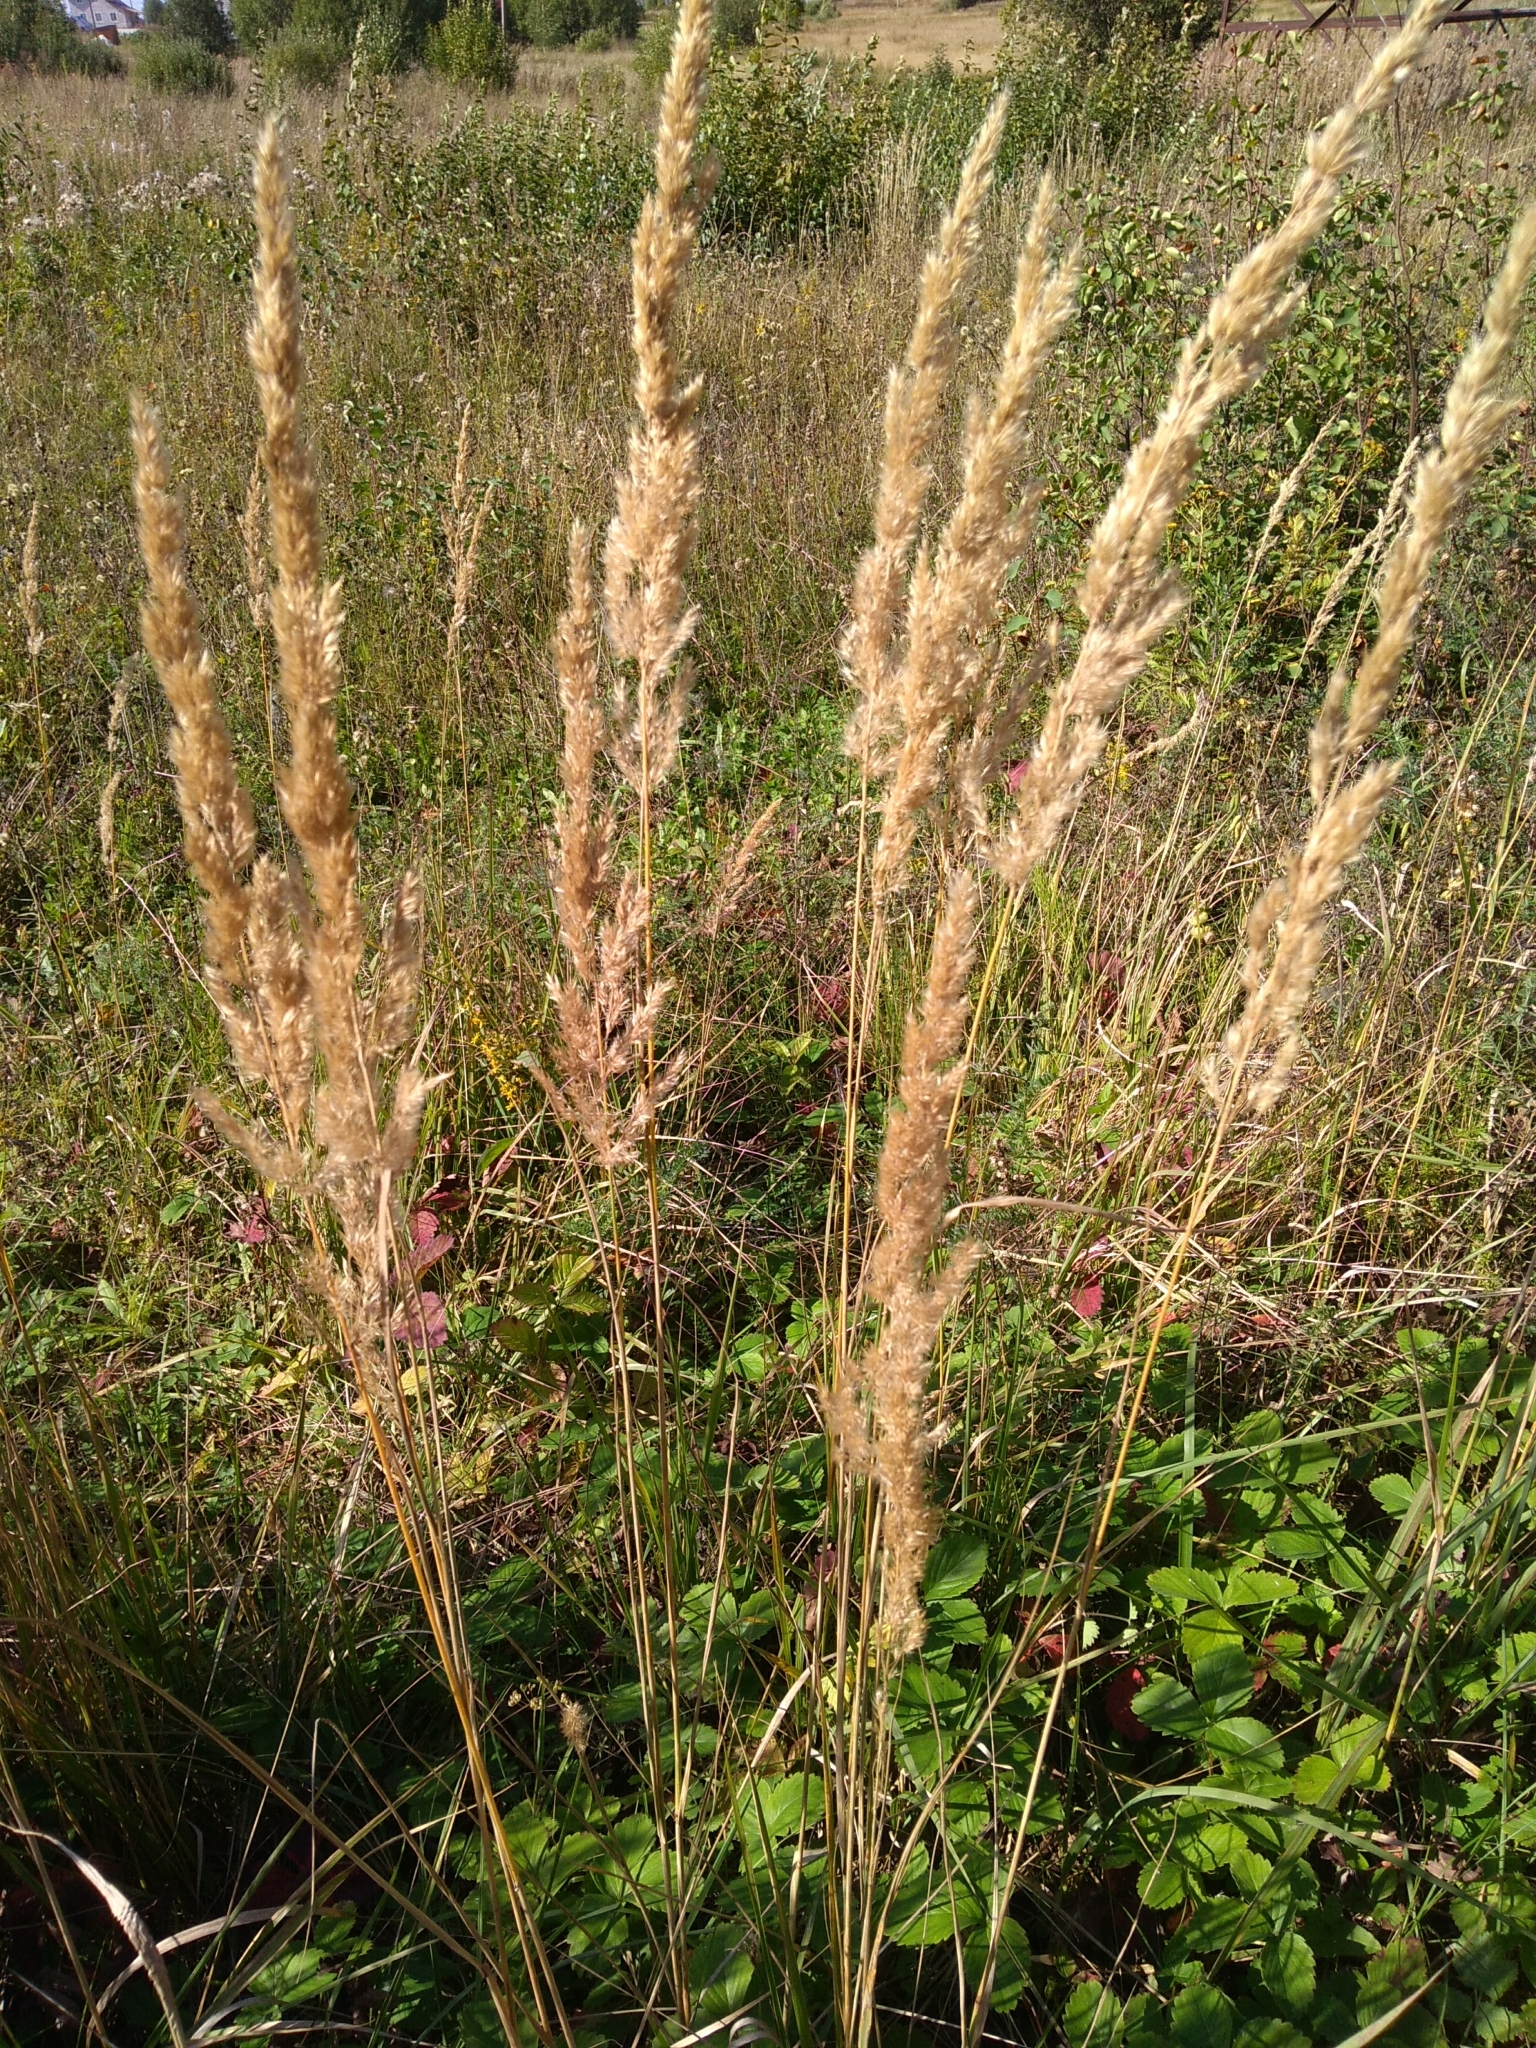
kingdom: Plantae
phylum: Tracheophyta
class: Liliopsida
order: Poales
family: Poaceae
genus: Calamagrostis
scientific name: Calamagrostis epigejos
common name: Wood small-reed
